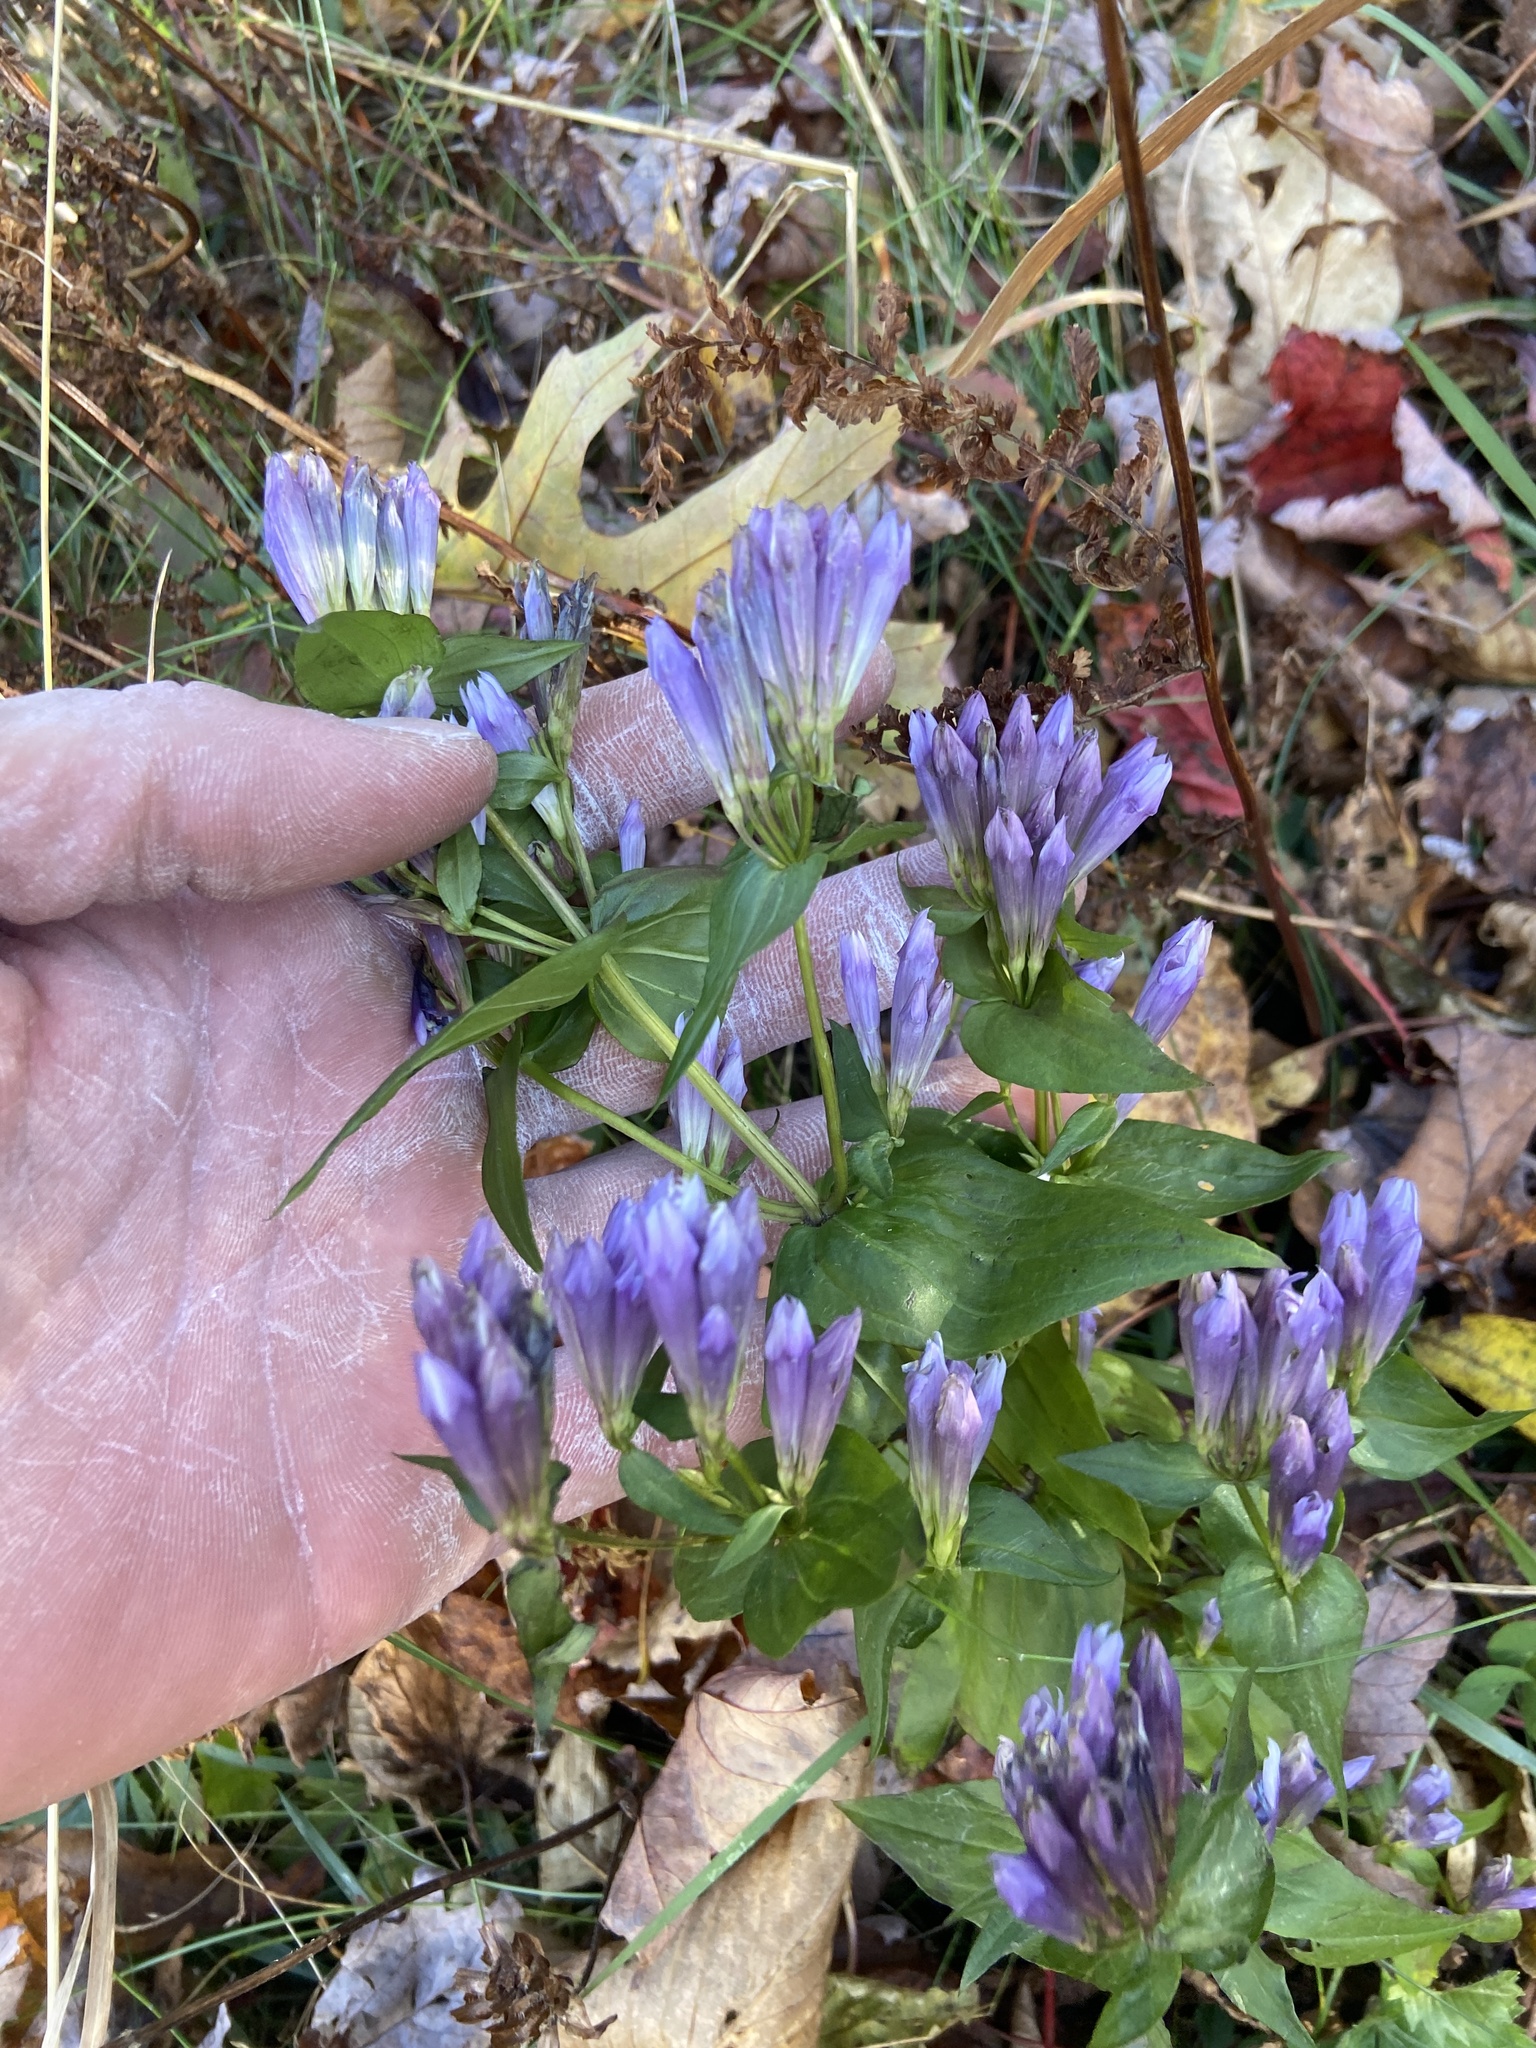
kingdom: Plantae
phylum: Tracheophyta
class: Magnoliopsida
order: Gentianales
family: Gentianaceae
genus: Gentianella
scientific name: Gentianella quinquefolia
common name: Agueweed
